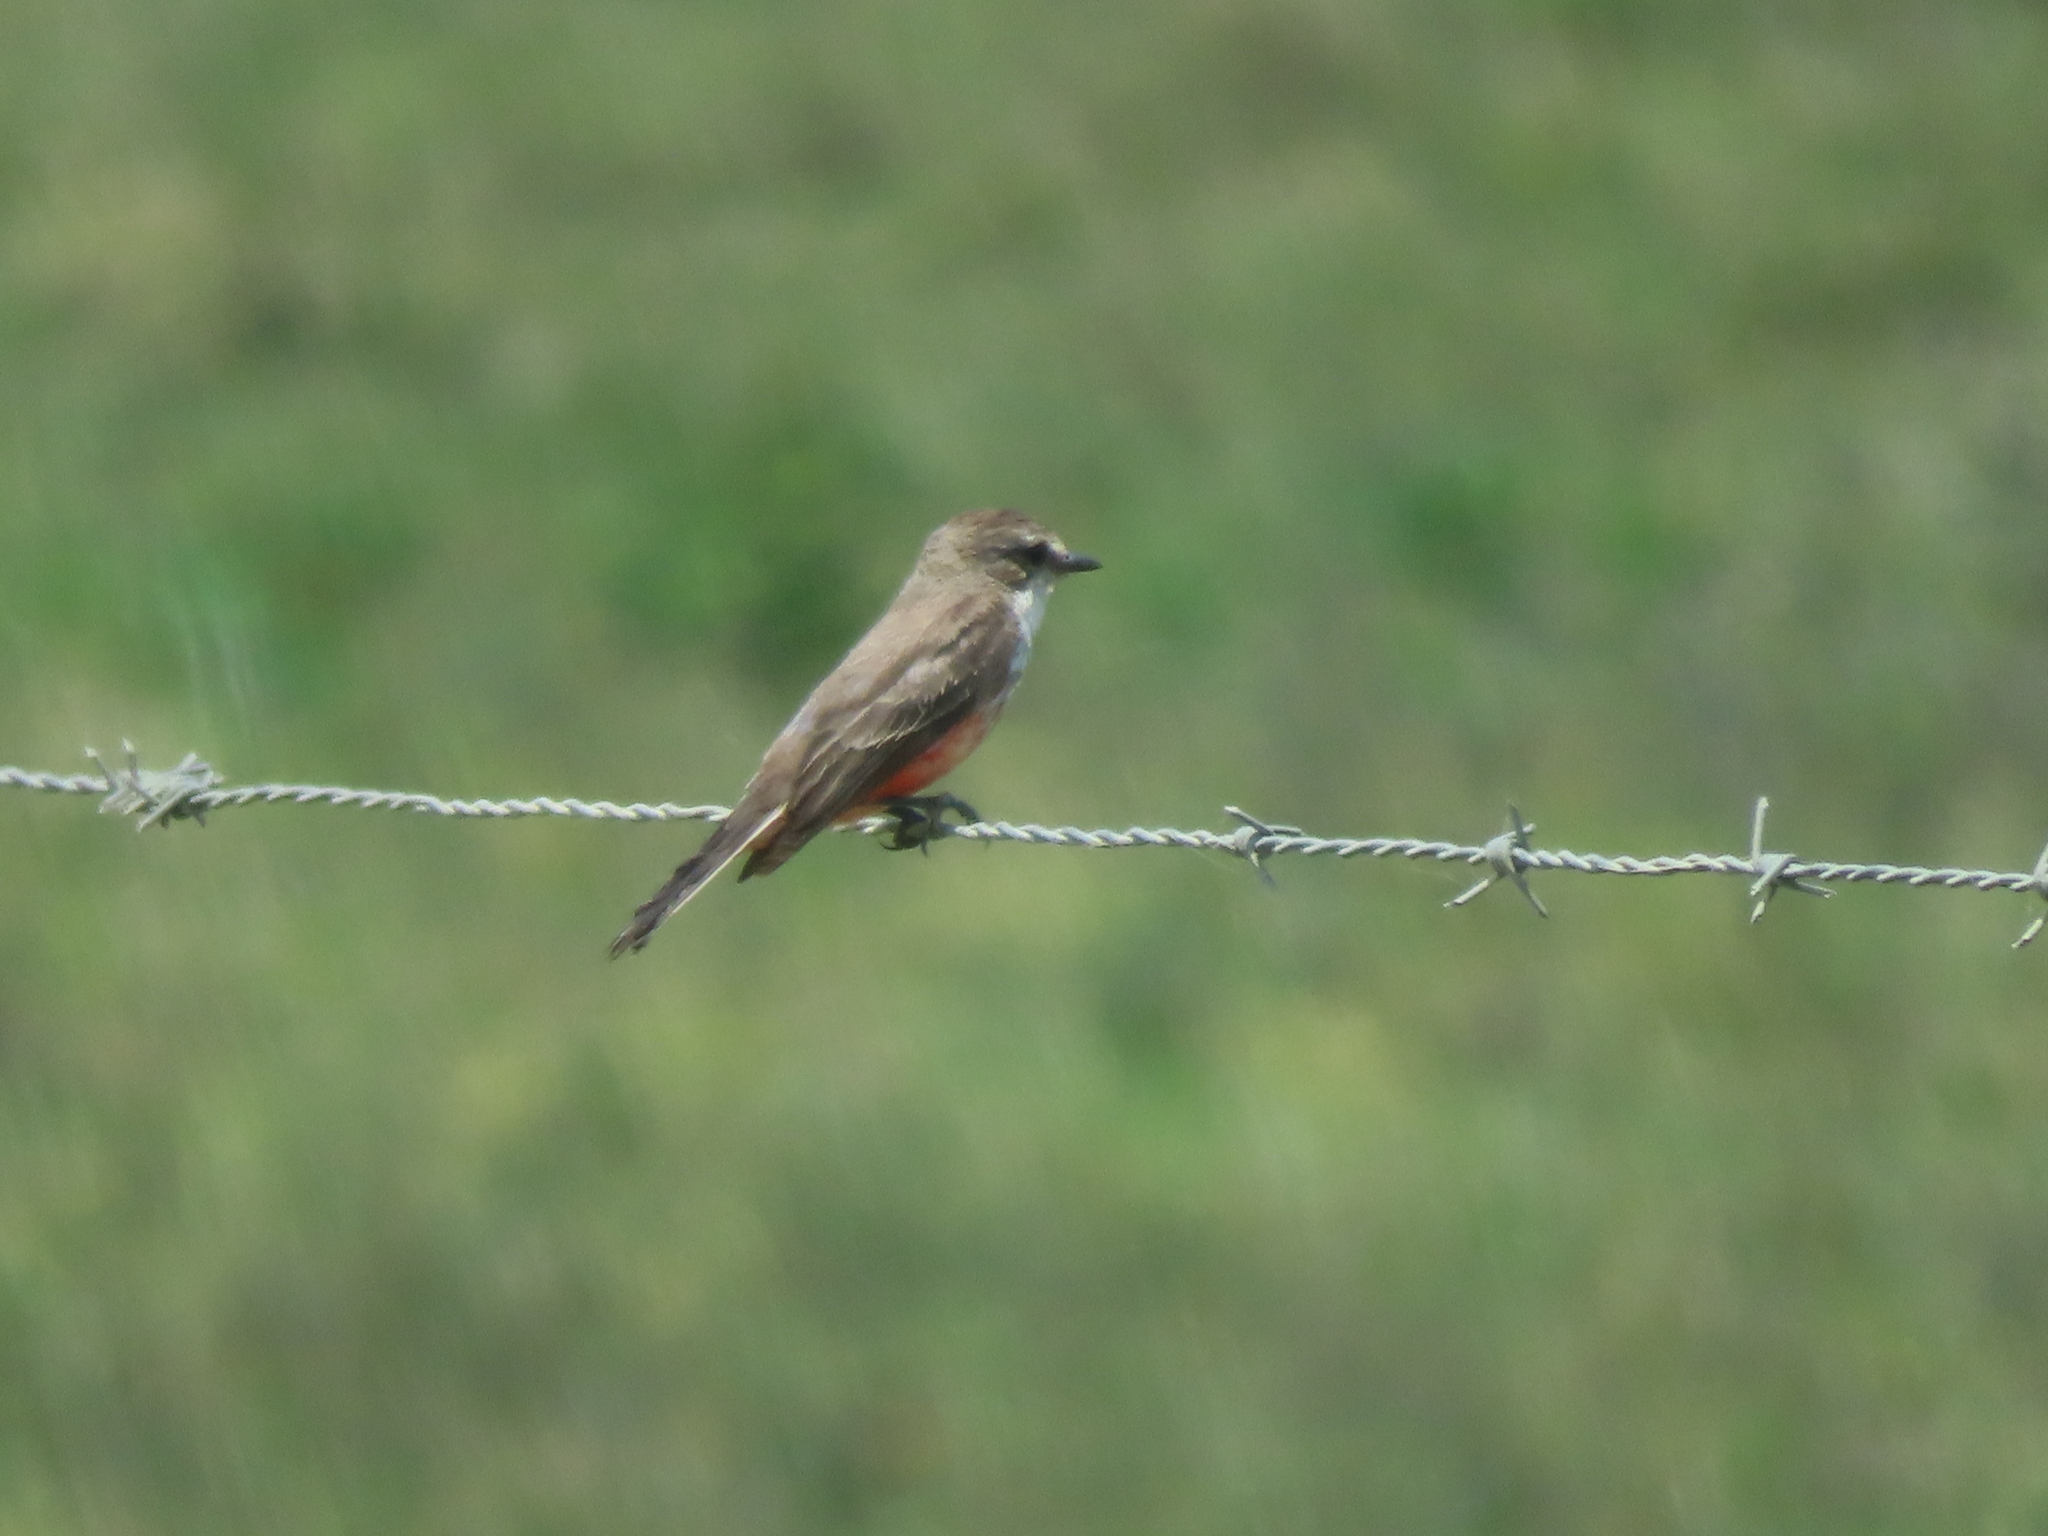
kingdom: Animalia
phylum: Chordata
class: Aves
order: Passeriformes
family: Tyrannidae
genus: Pyrocephalus
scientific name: Pyrocephalus rubinus
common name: Vermilion flycatcher
